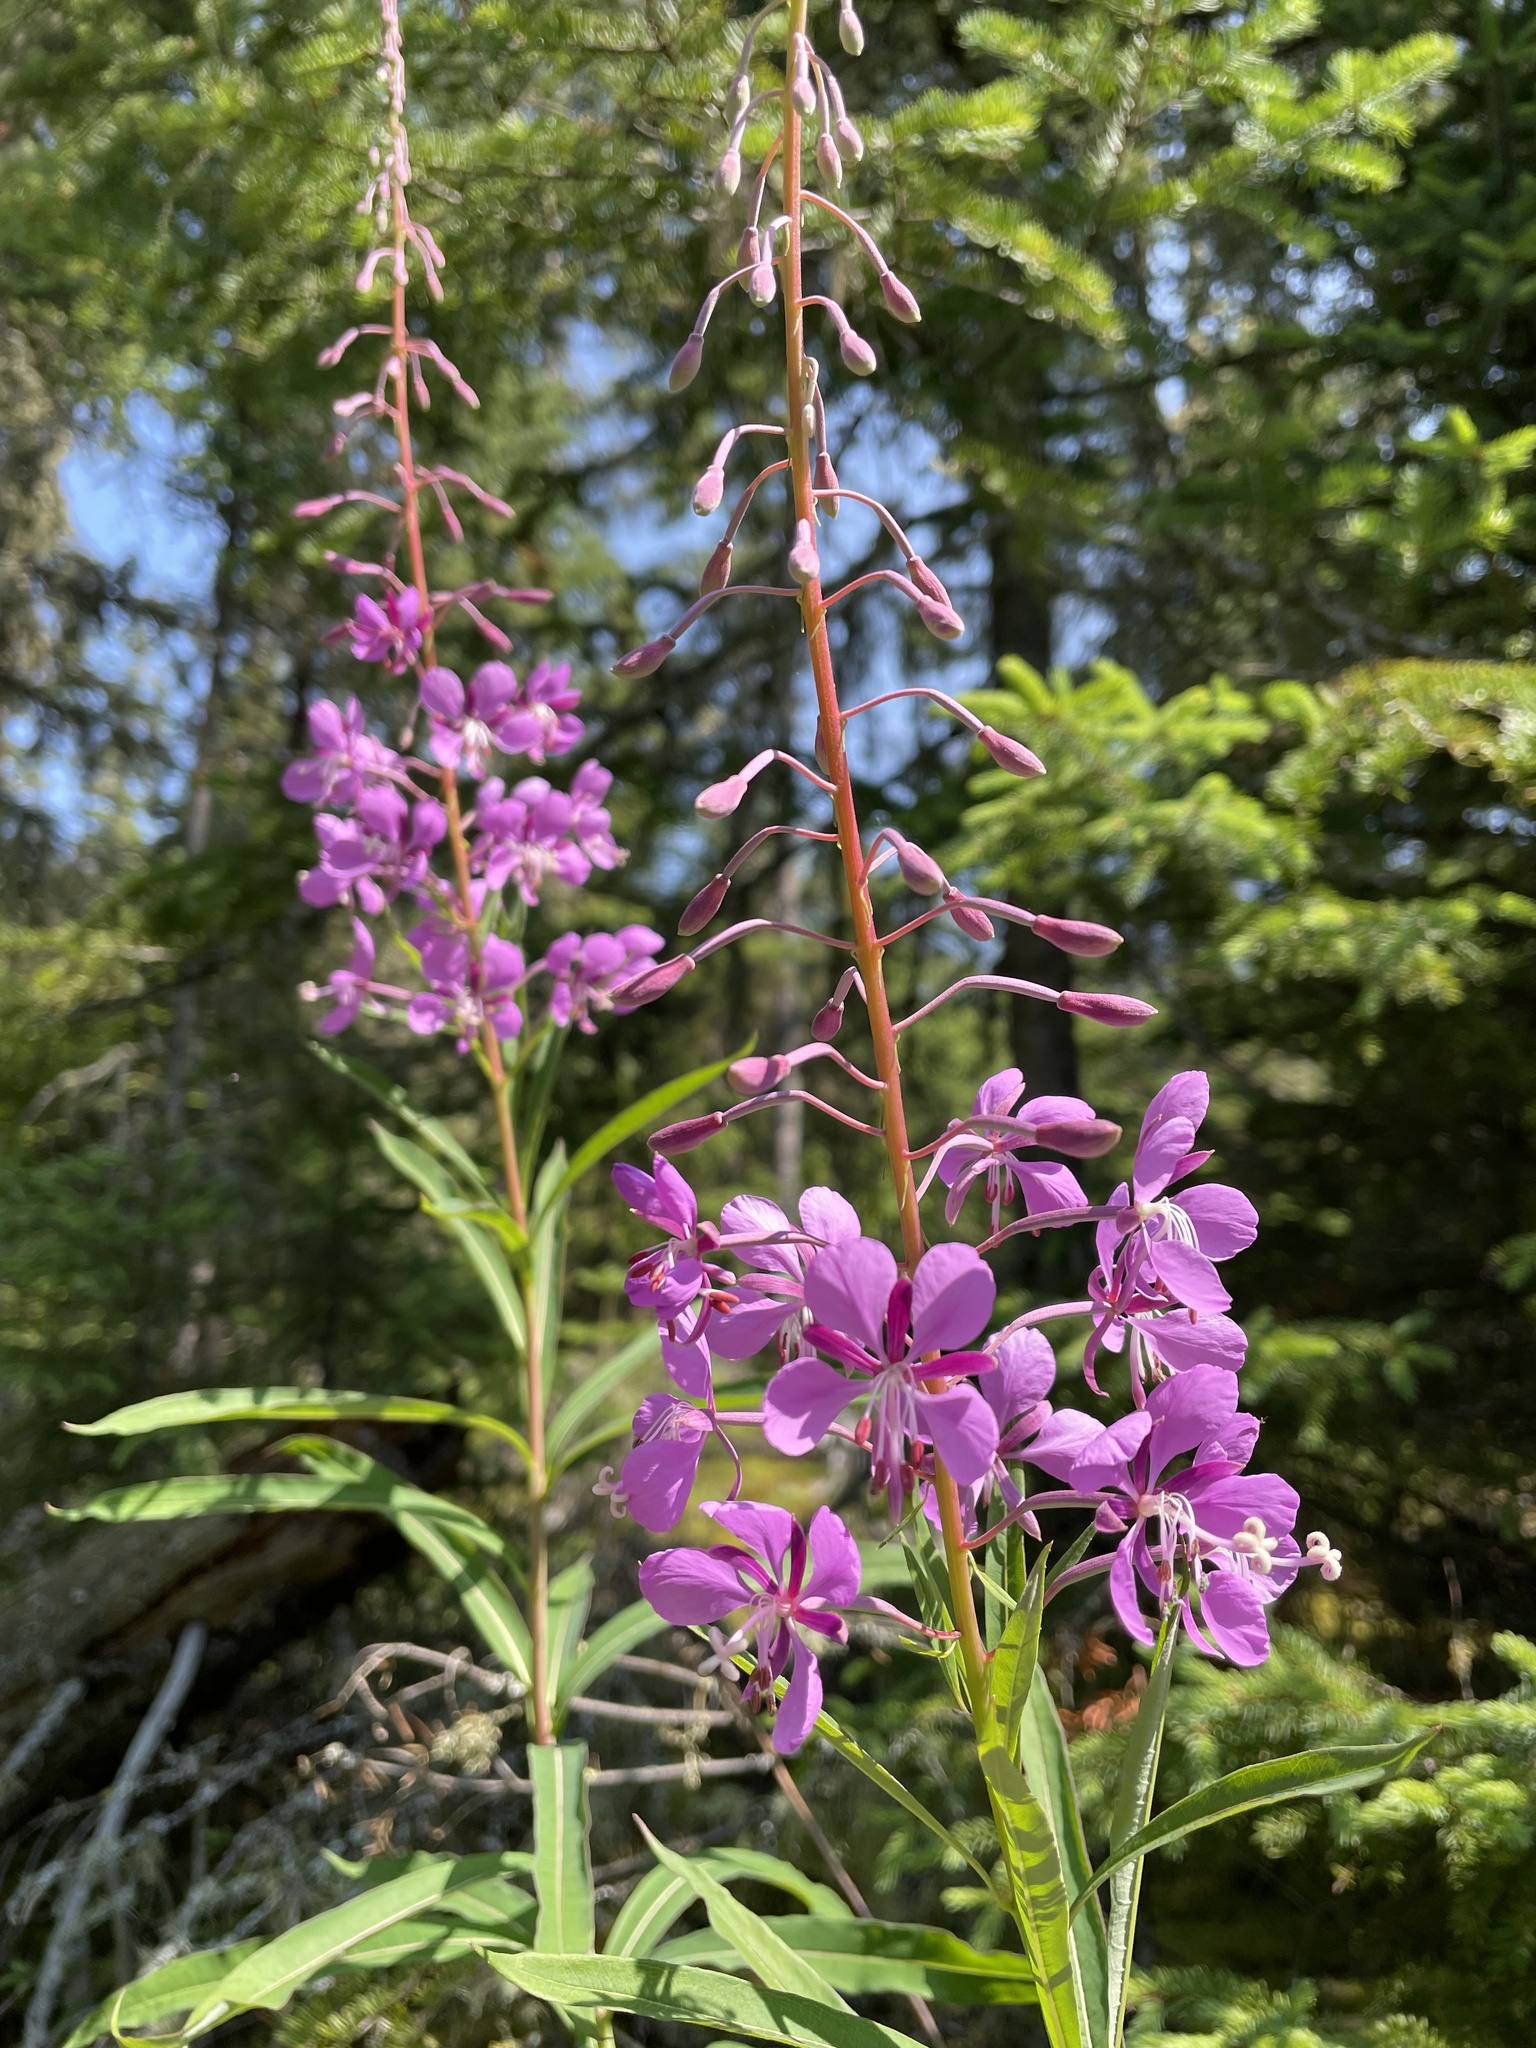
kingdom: Plantae
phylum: Tracheophyta
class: Magnoliopsida
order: Myrtales
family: Onagraceae
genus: Chamaenerion
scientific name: Chamaenerion angustifolium
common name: Fireweed
